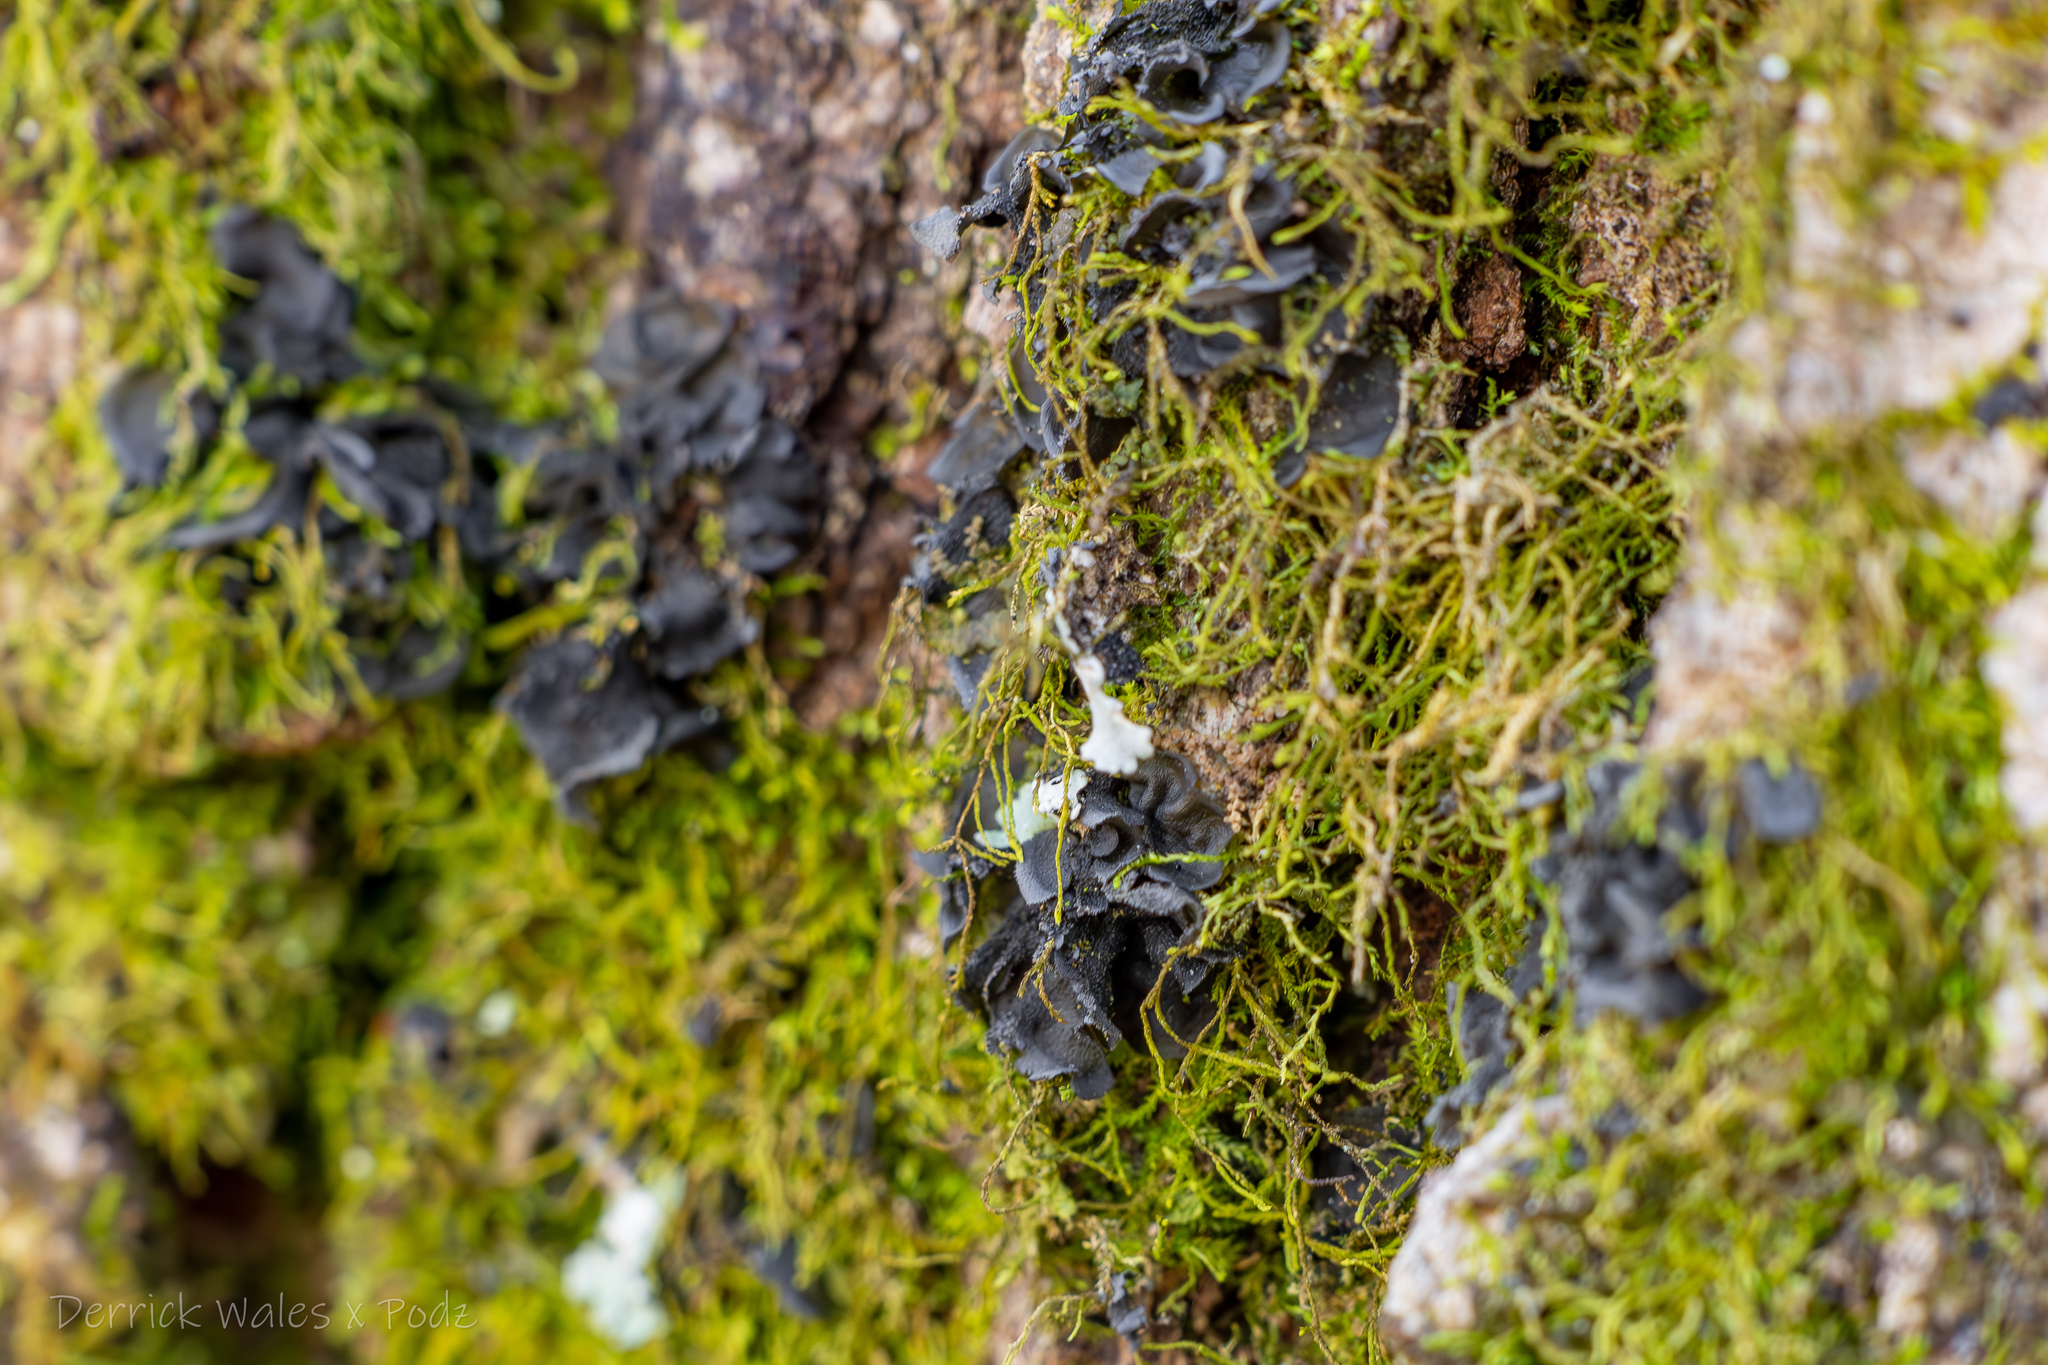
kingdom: Fungi
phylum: Ascomycota
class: Lecanoromycetes
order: Peltigerales
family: Collemataceae
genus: Leptogium
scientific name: Leptogium austroamericanum
